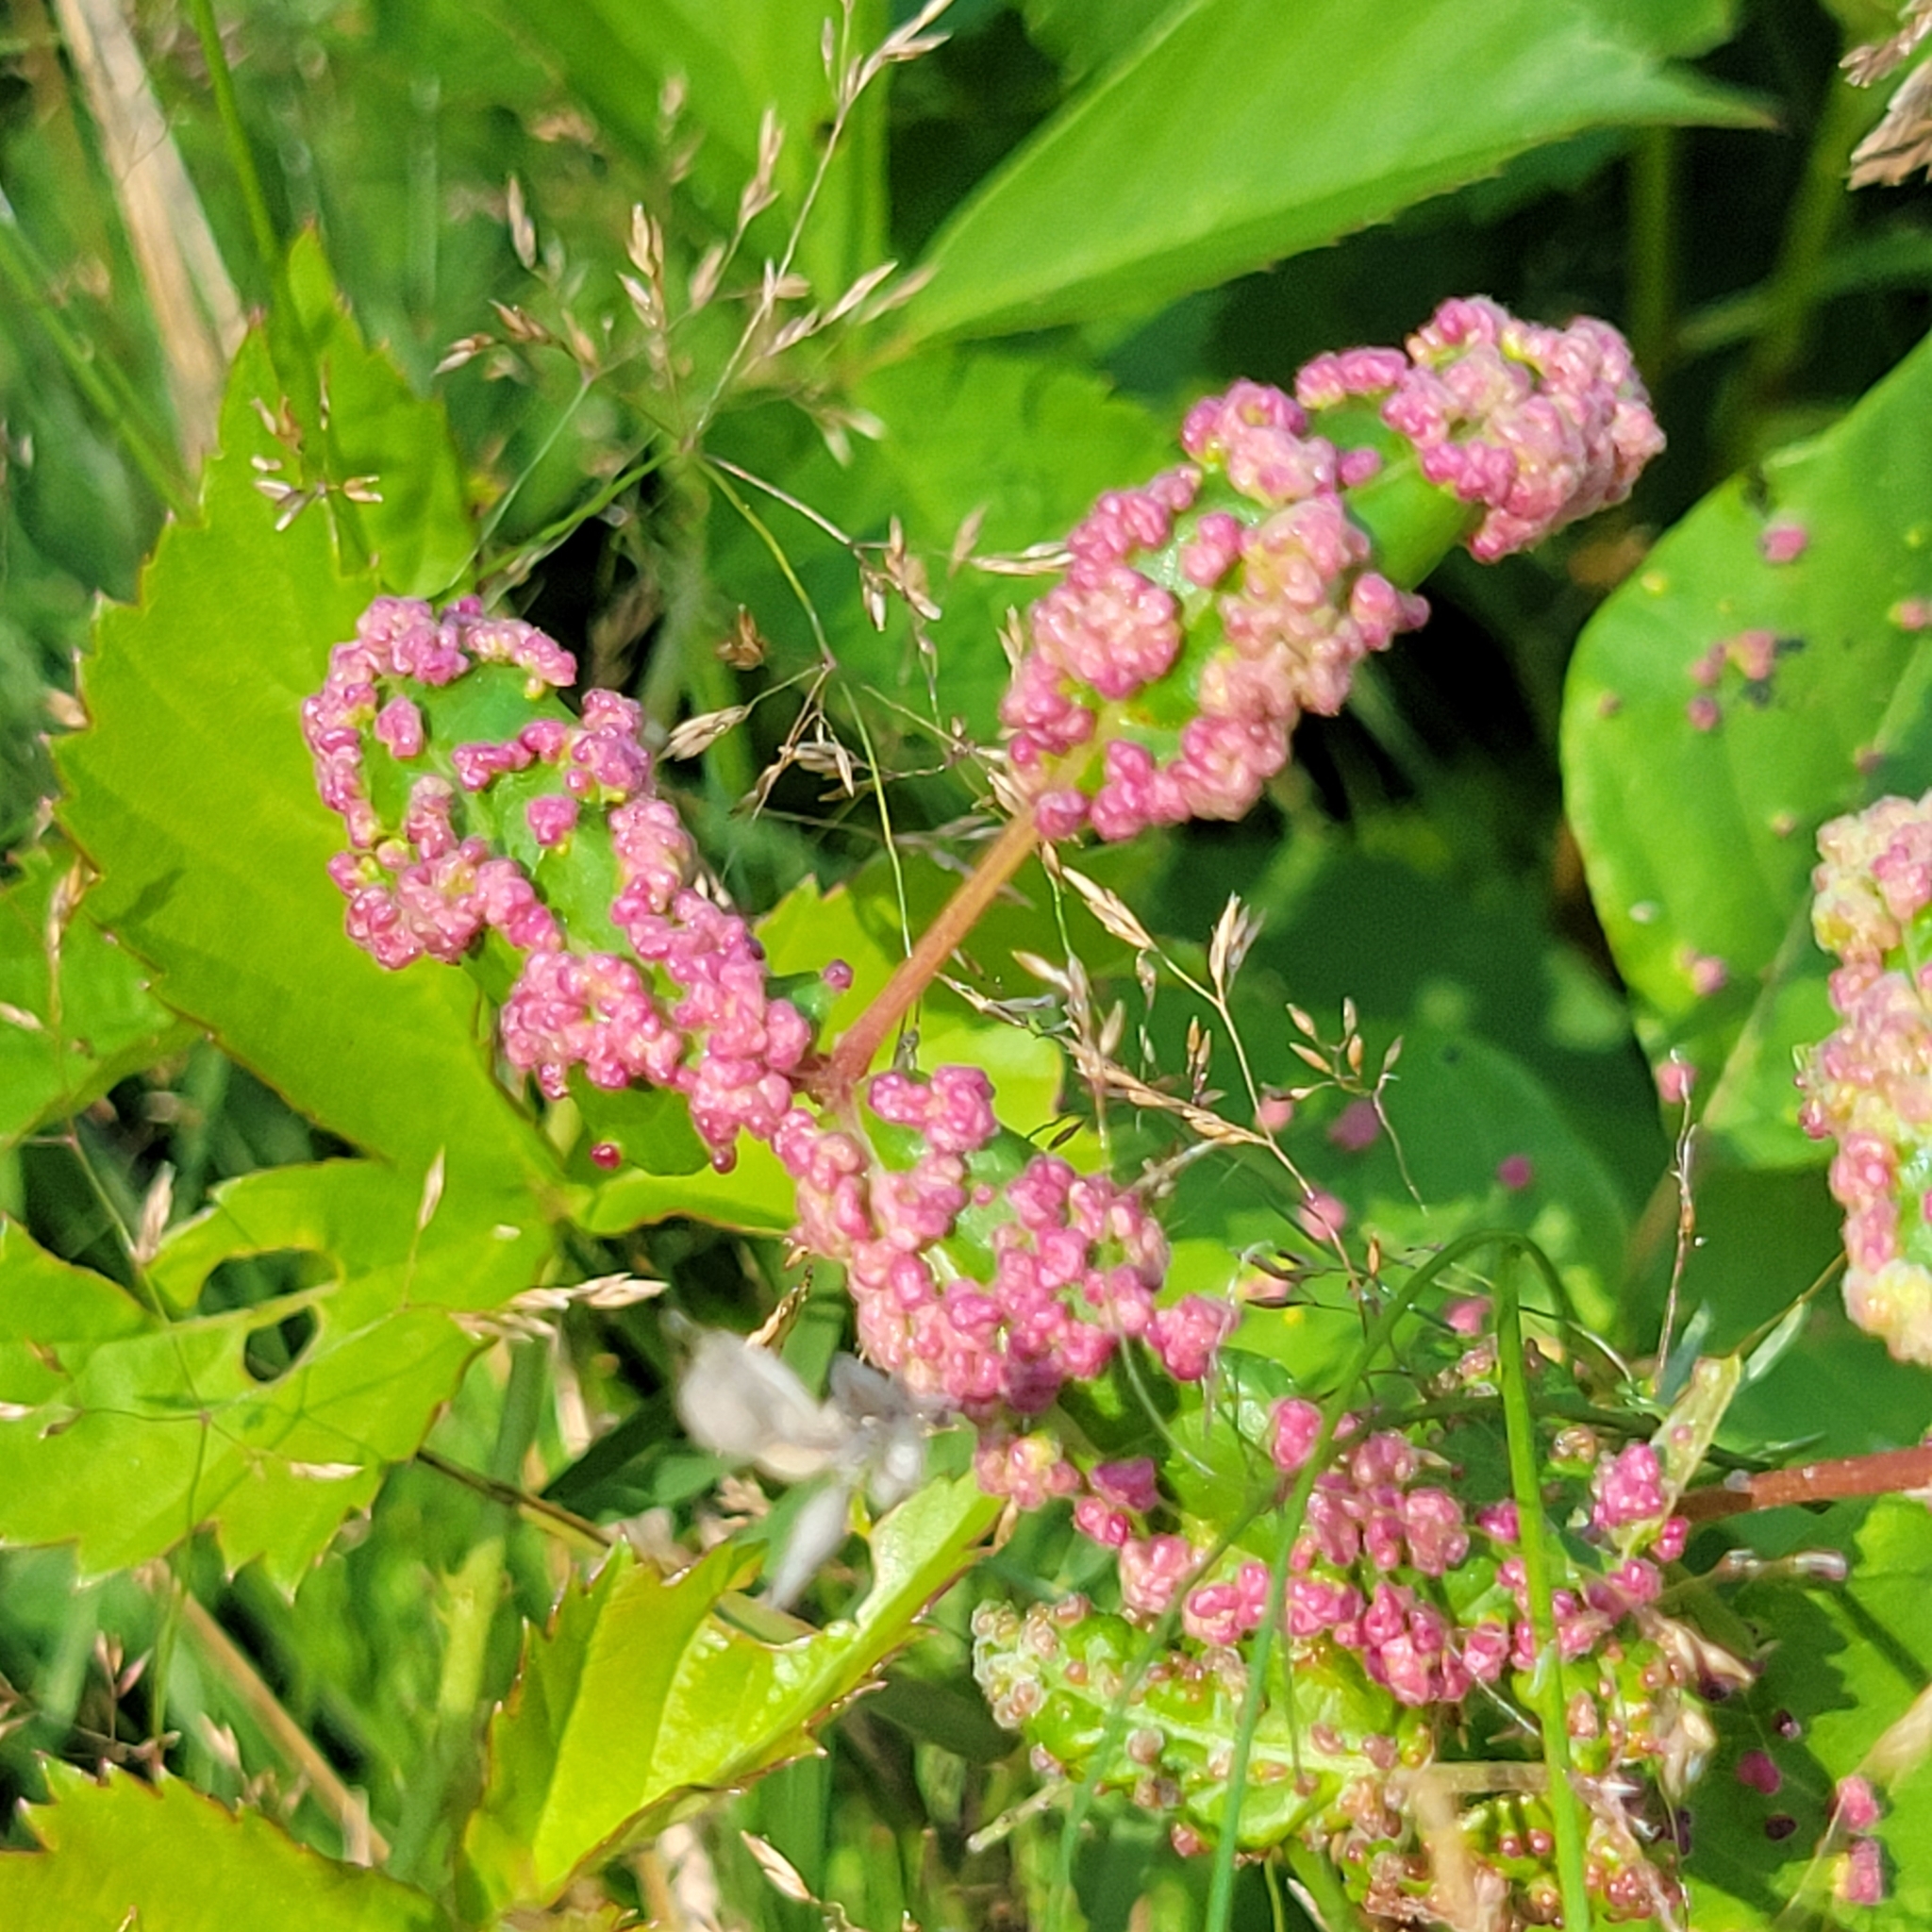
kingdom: Animalia
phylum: Arthropoda
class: Arachnida
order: Trombidiformes
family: Eriophyidae
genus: Aculops
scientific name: Aculops
